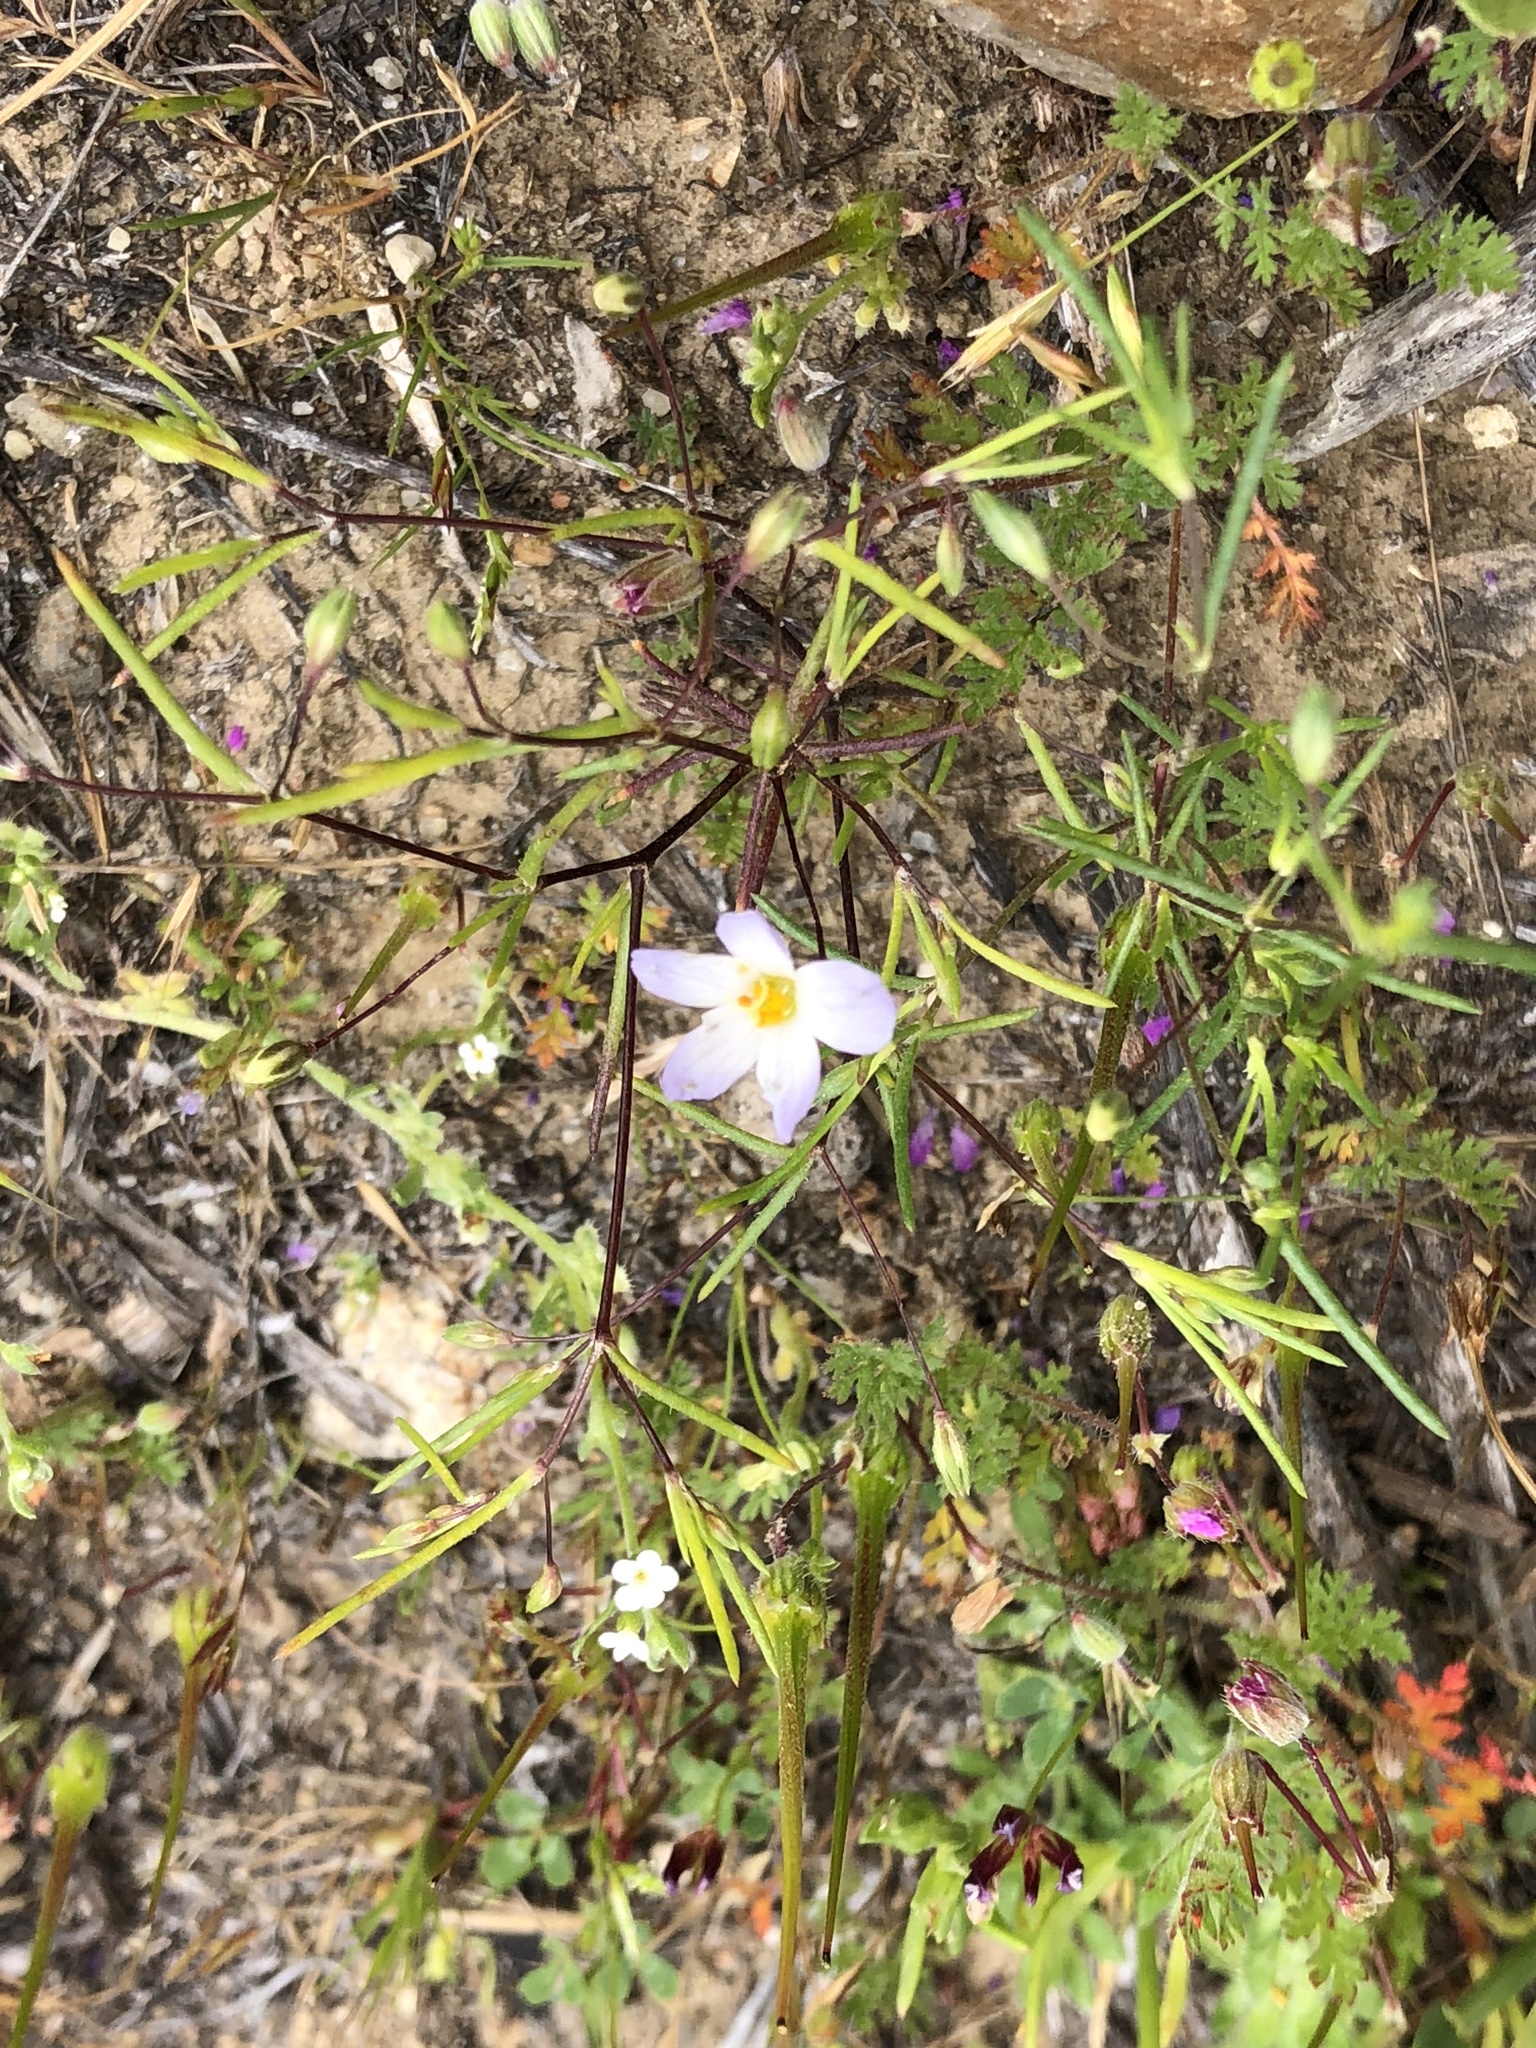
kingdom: Plantae
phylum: Tracheophyta
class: Magnoliopsida
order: Ericales
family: Polemoniaceae
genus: Leptosiphon
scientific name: Leptosiphon liniflorus
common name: Narrowflower flaxflower
